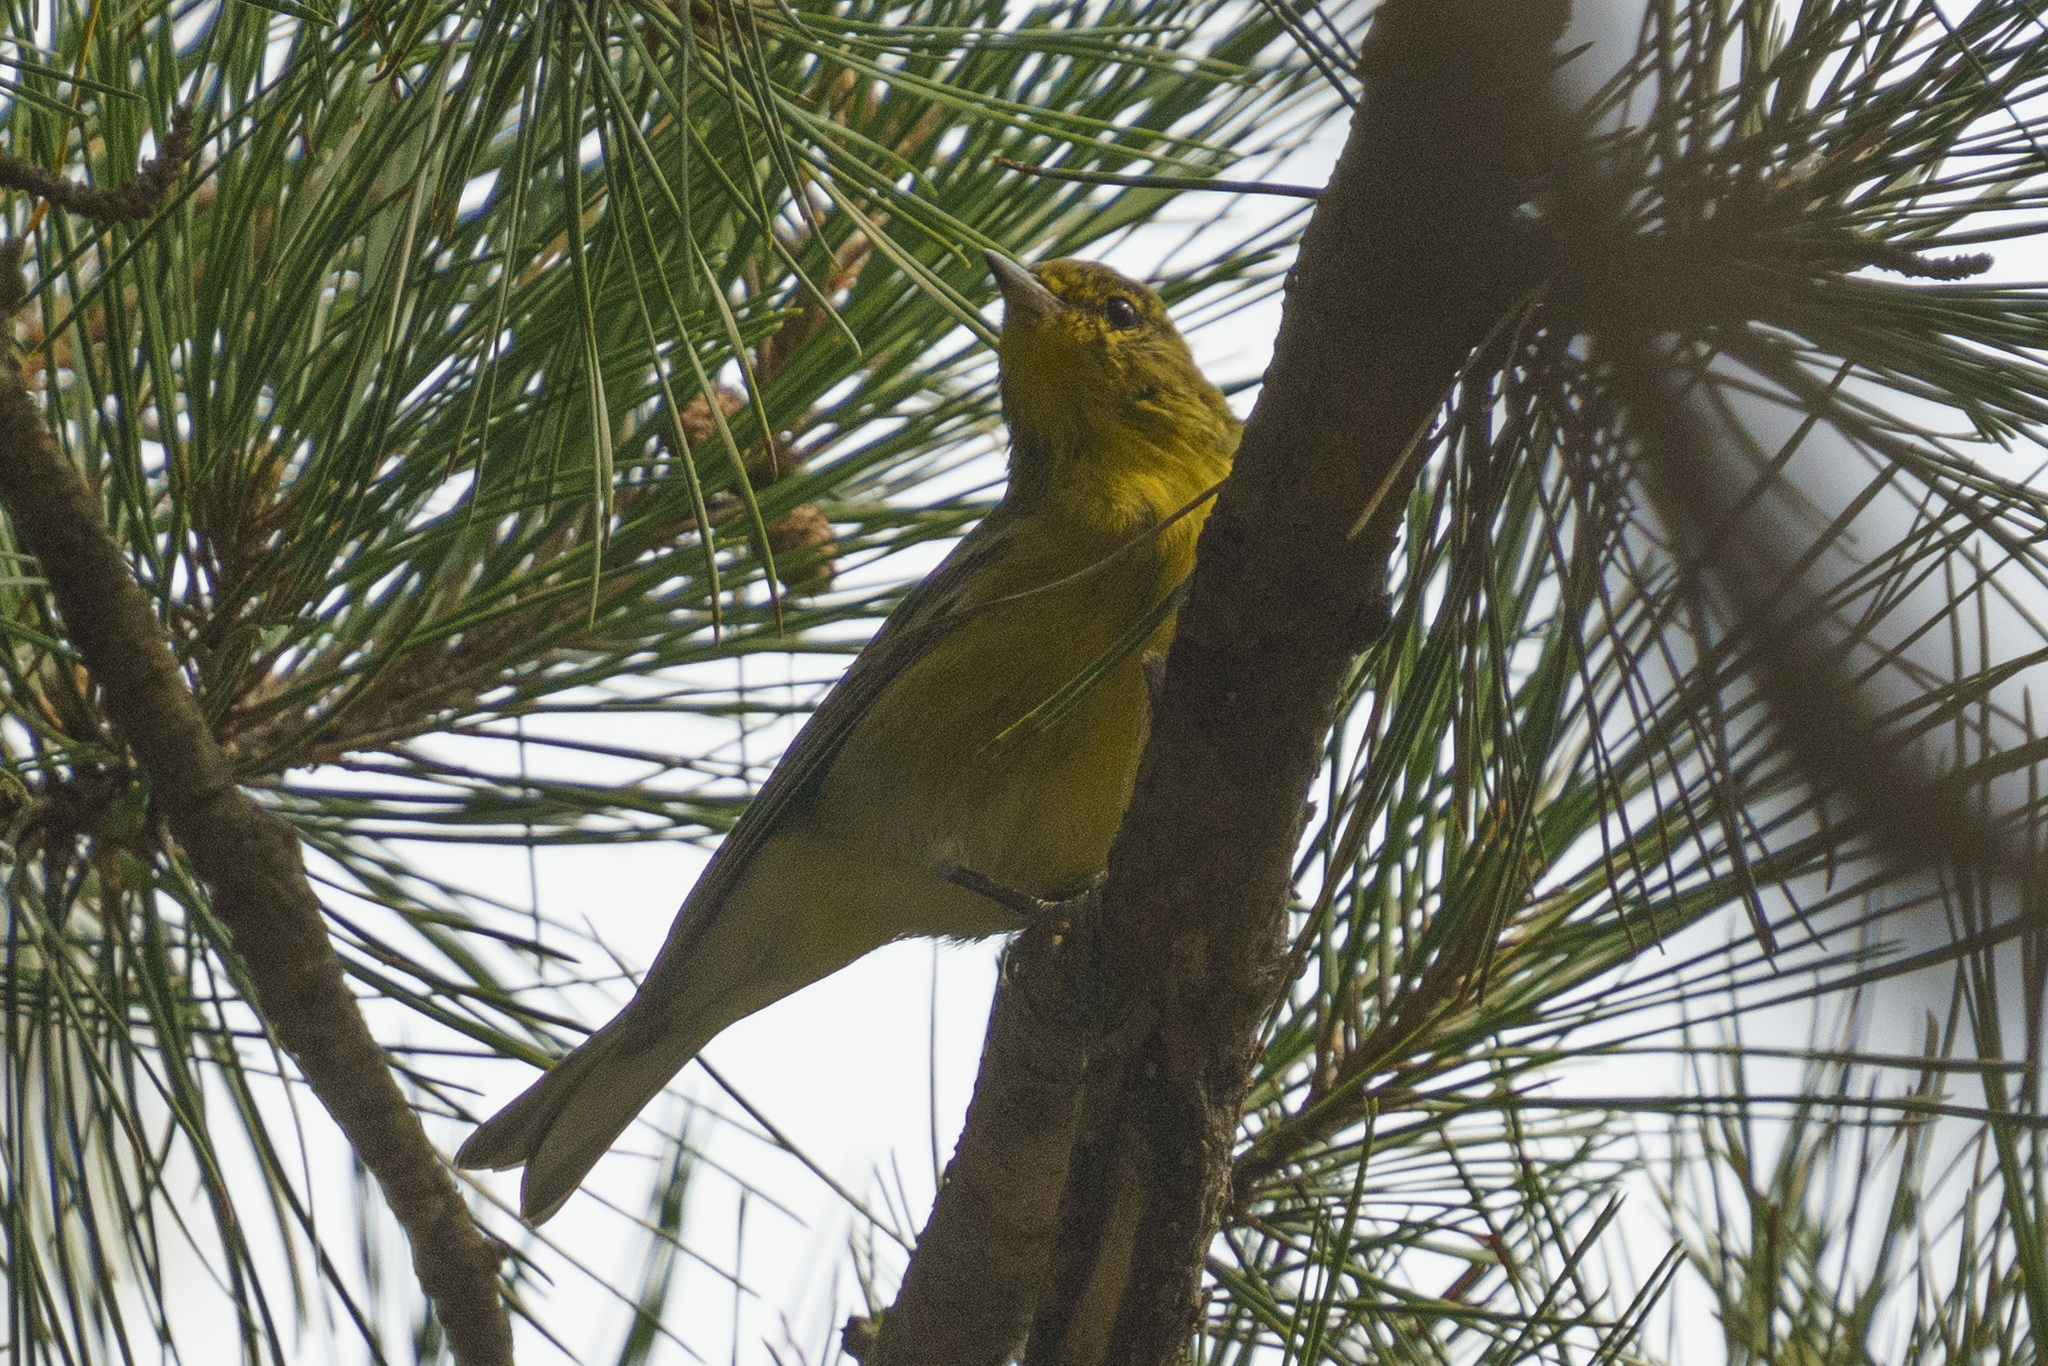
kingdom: Animalia
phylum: Chordata
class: Aves
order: Passeriformes
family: Parulidae
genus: Setophaga
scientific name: Setophaga pinus
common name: Pine warbler
